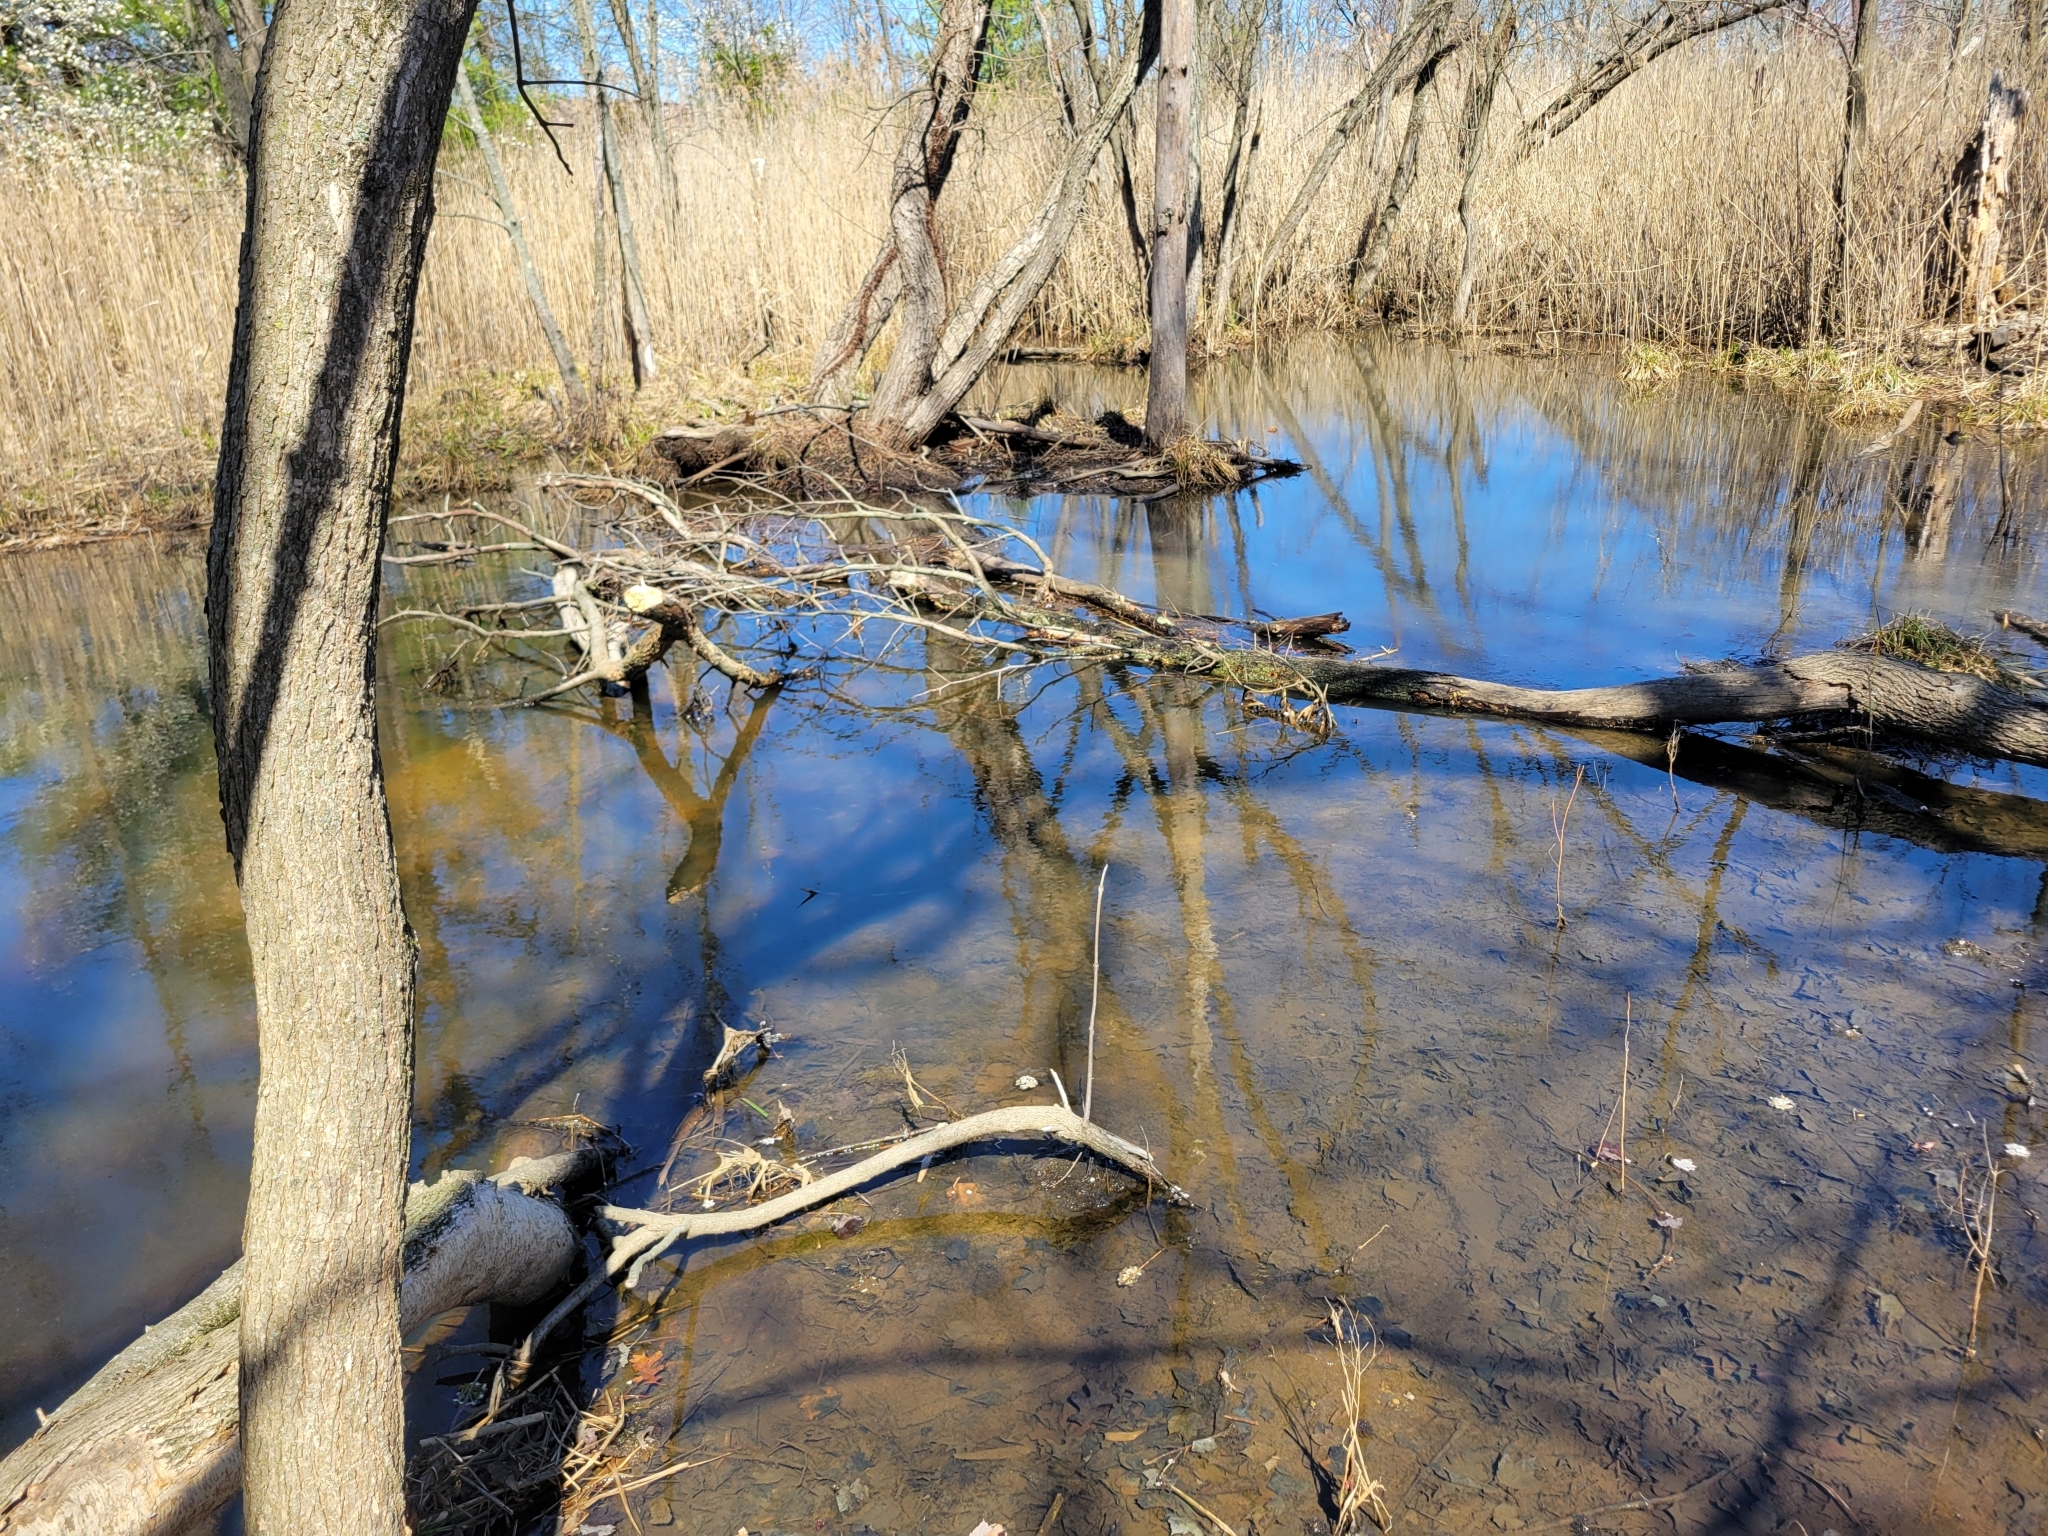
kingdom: Animalia
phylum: Chordata
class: Mammalia
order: Rodentia
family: Castoridae
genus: Castor
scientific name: Castor canadensis
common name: American beaver
